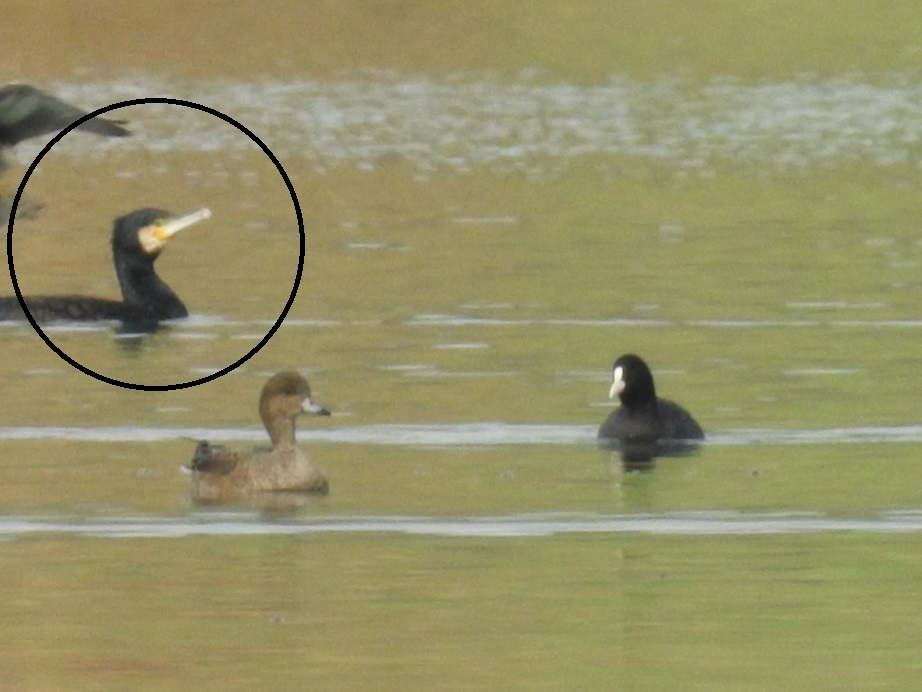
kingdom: Animalia
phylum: Chordata
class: Aves
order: Suliformes
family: Phalacrocoracidae
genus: Phalacrocorax
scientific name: Phalacrocorax carbo
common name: Great cormorant
